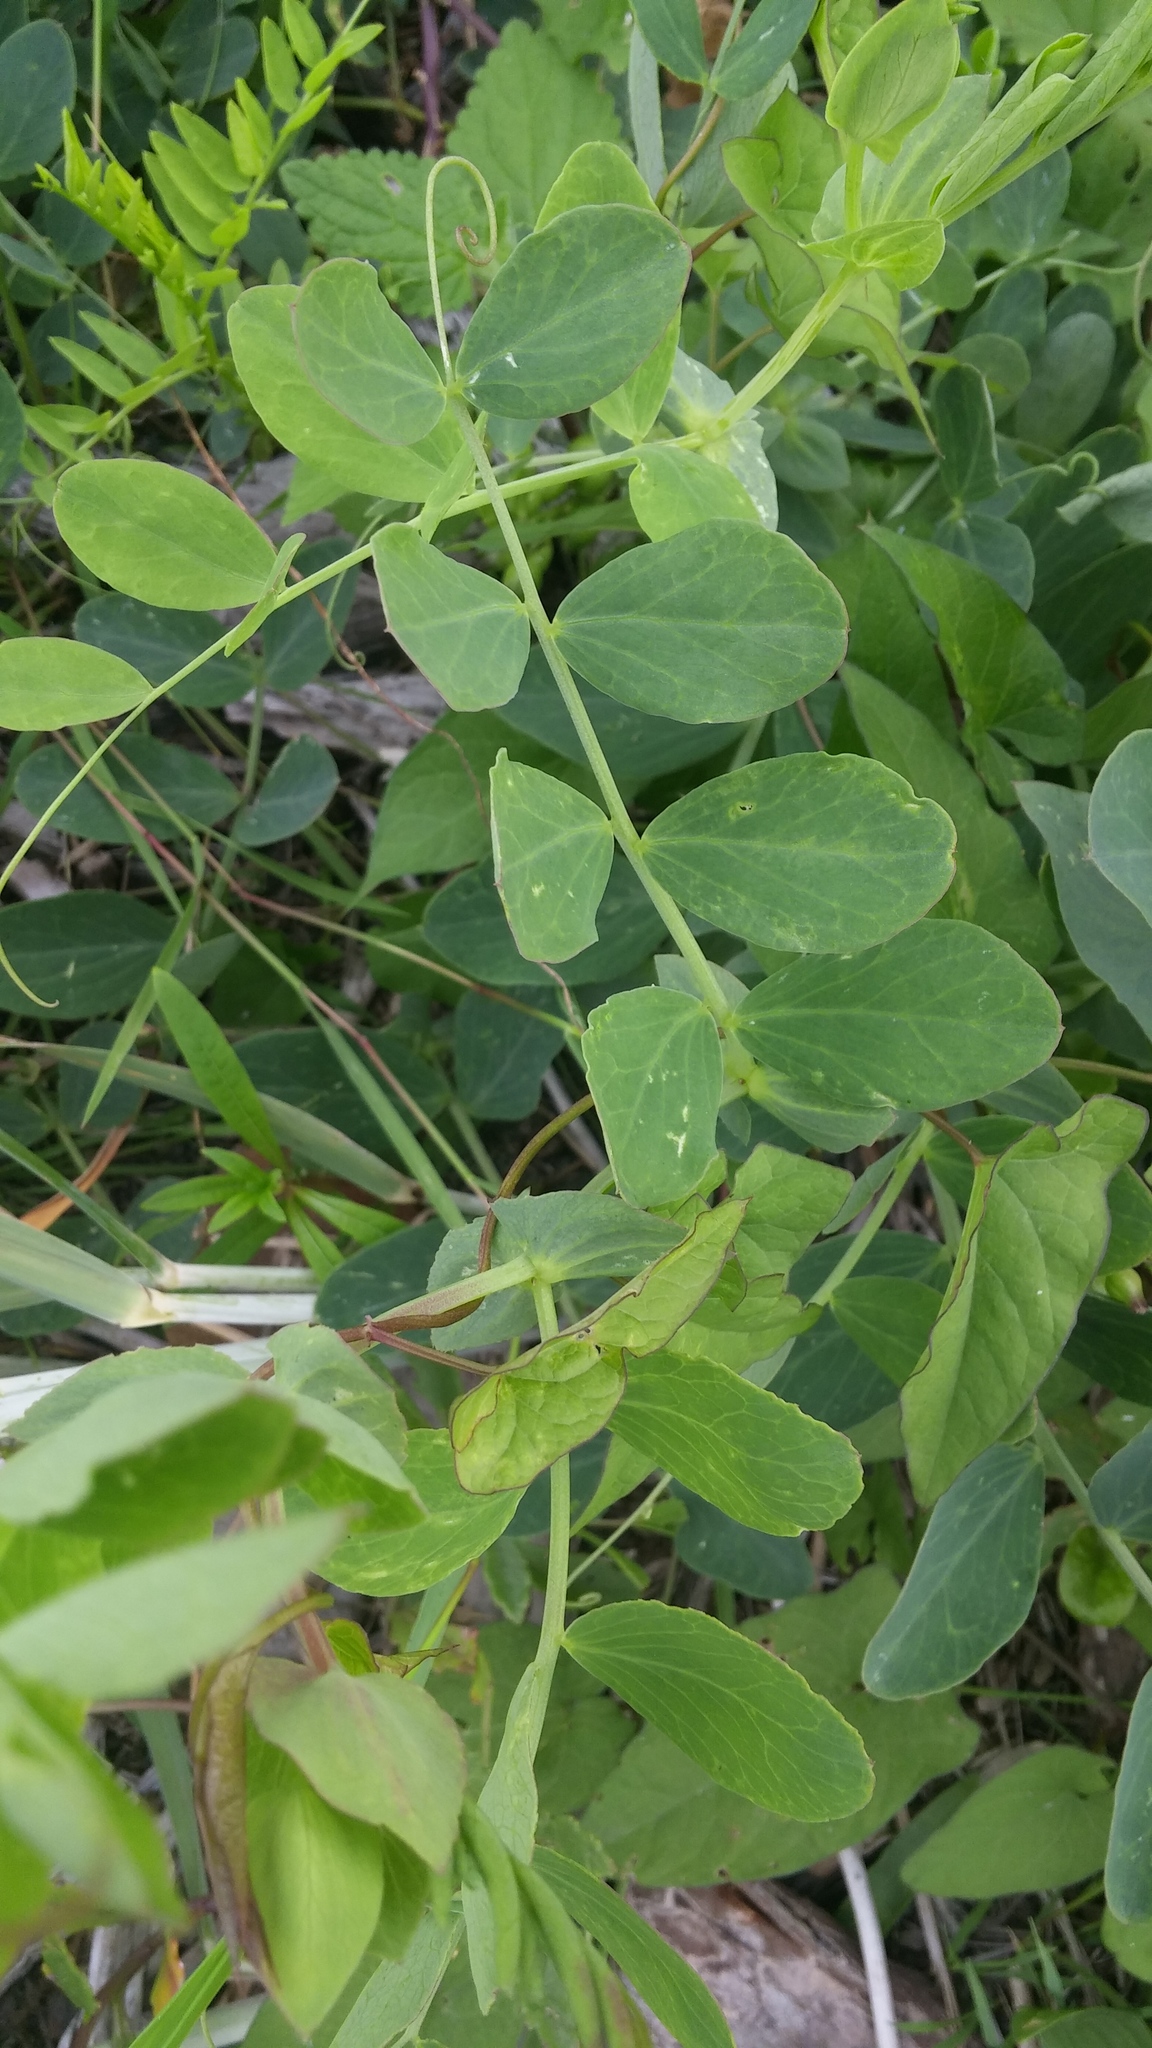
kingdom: Plantae
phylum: Tracheophyta
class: Magnoliopsida
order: Fabales
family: Fabaceae
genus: Lathyrus
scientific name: Lathyrus japonicus
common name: Sea pea
